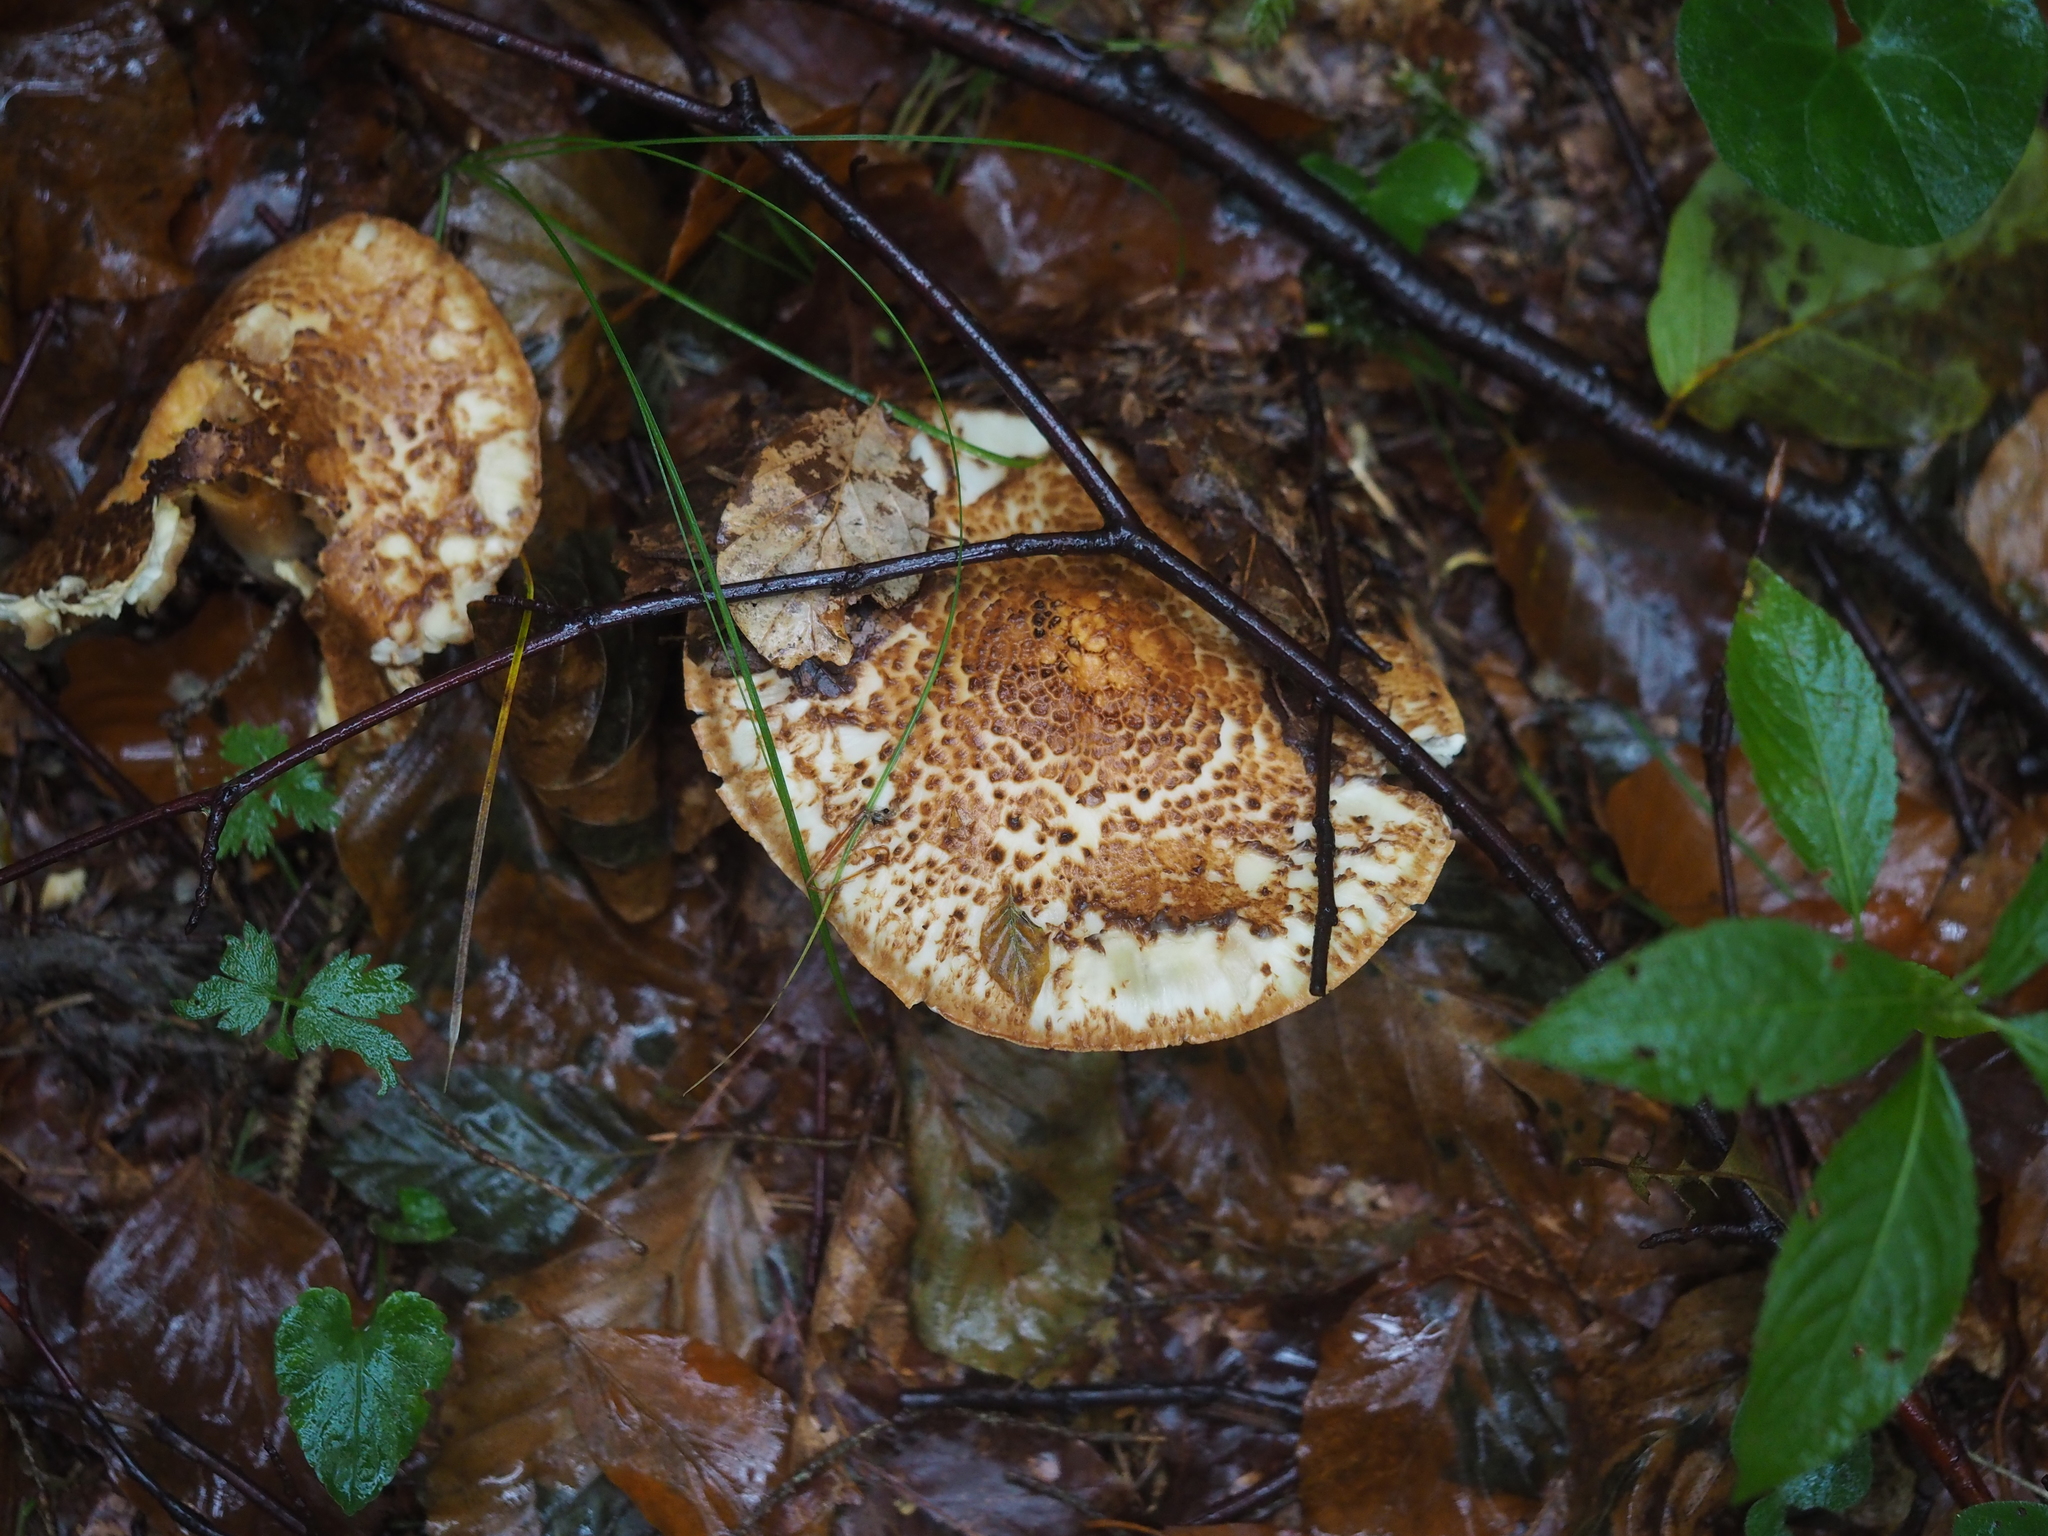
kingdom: Fungi
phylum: Basidiomycota
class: Agaricomycetes
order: Agaricales
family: Agaricaceae
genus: Echinoderma
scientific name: Echinoderma asperum
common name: Freckled dapperling
